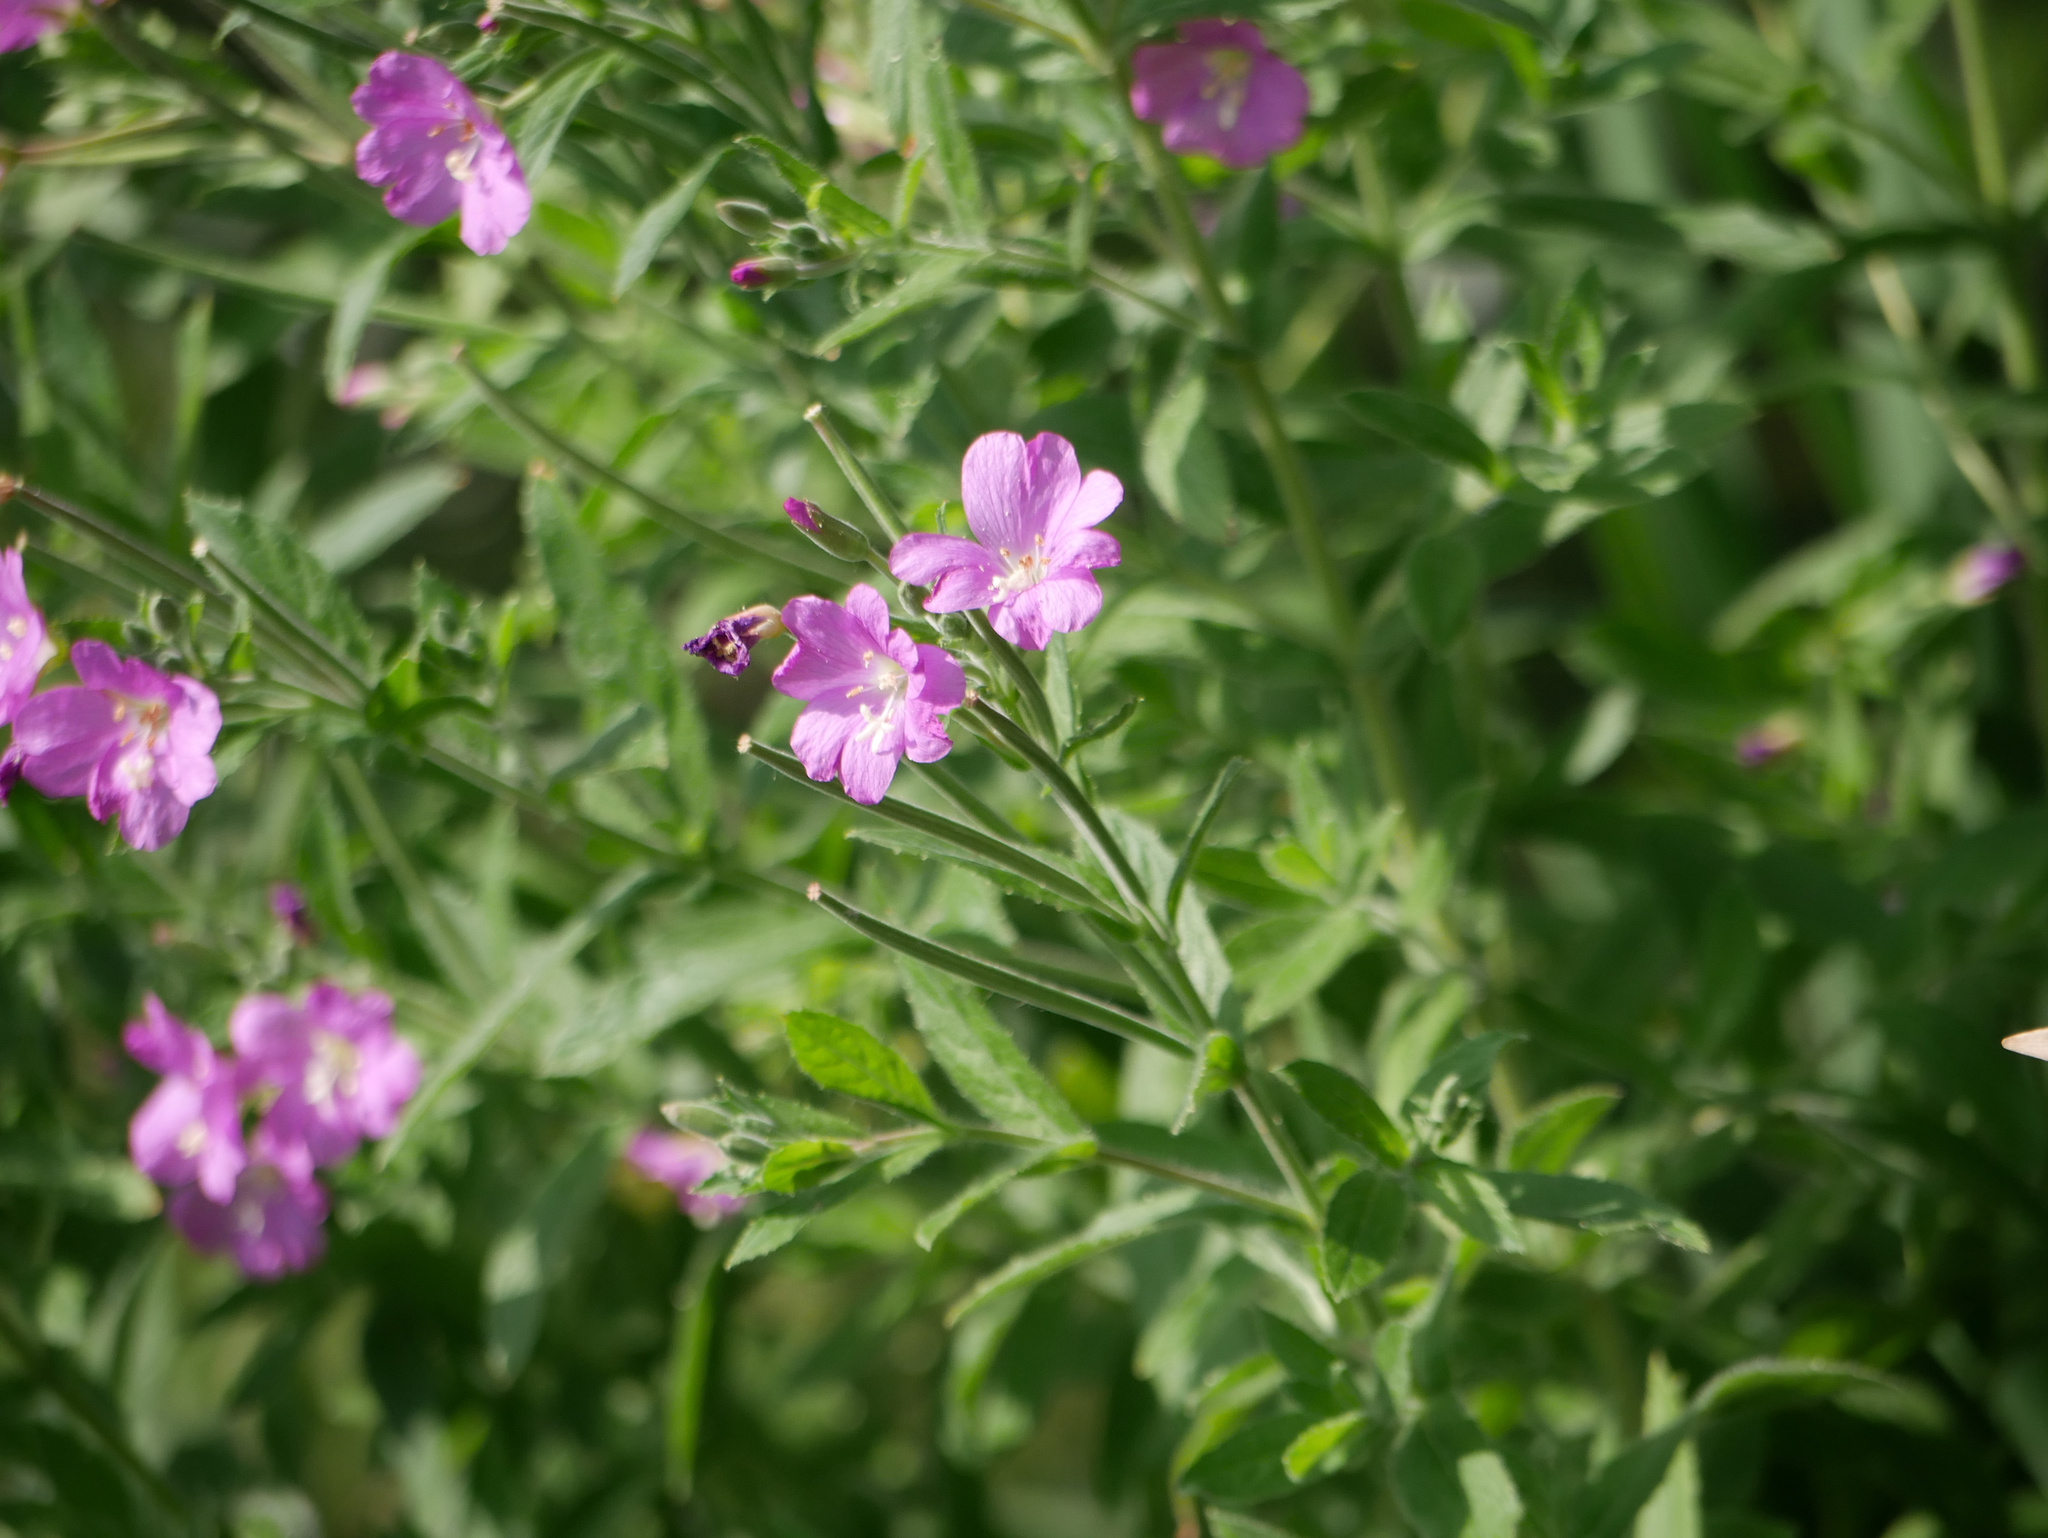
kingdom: Plantae
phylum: Tracheophyta
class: Magnoliopsida
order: Myrtales
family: Onagraceae
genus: Epilobium
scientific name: Epilobium hirsutum
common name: Great willowherb
